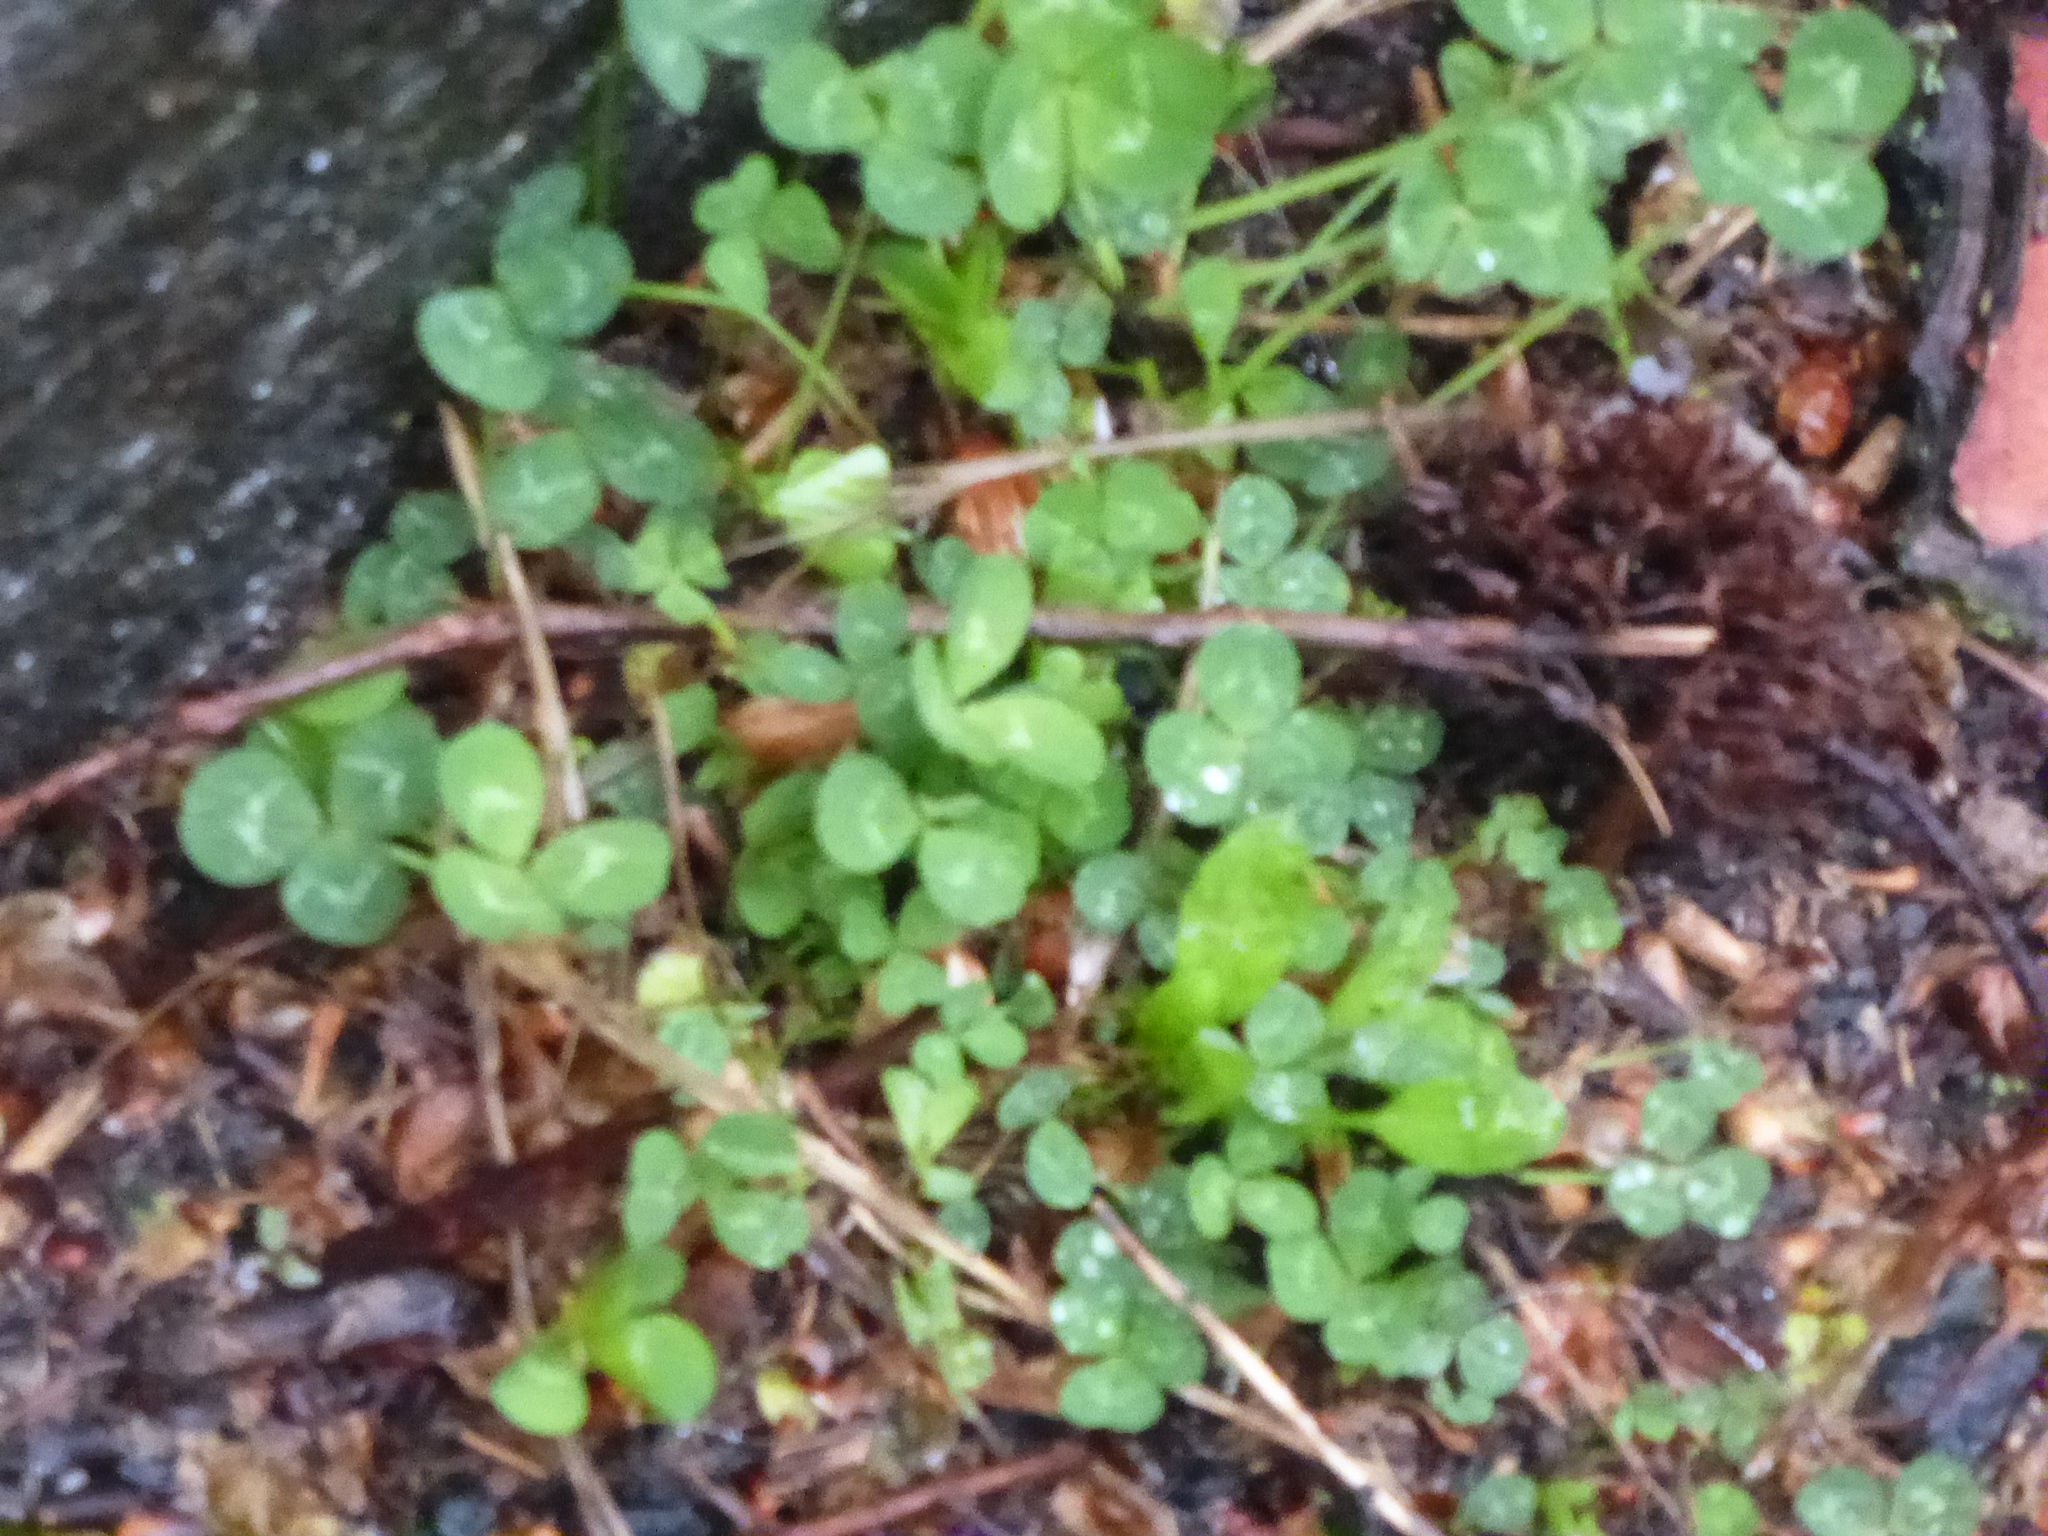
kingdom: Plantae
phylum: Tracheophyta
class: Magnoliopsida
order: Fabales
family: Fabaceae
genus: Trifolium
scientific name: Trifolium repens
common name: White clover
